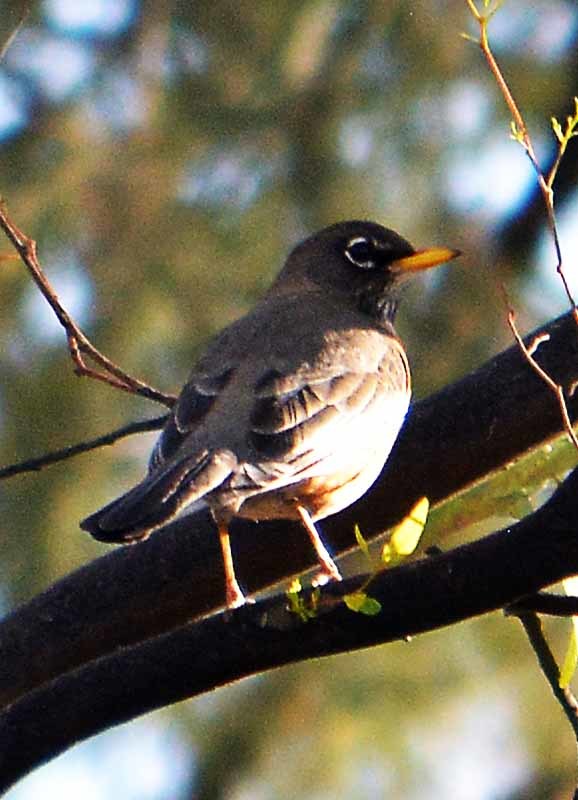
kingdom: Animalia
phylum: Chordata
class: Aves
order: Passeriformes
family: Turdidae
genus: Turdus
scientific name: Turdus migratorius
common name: American robin
